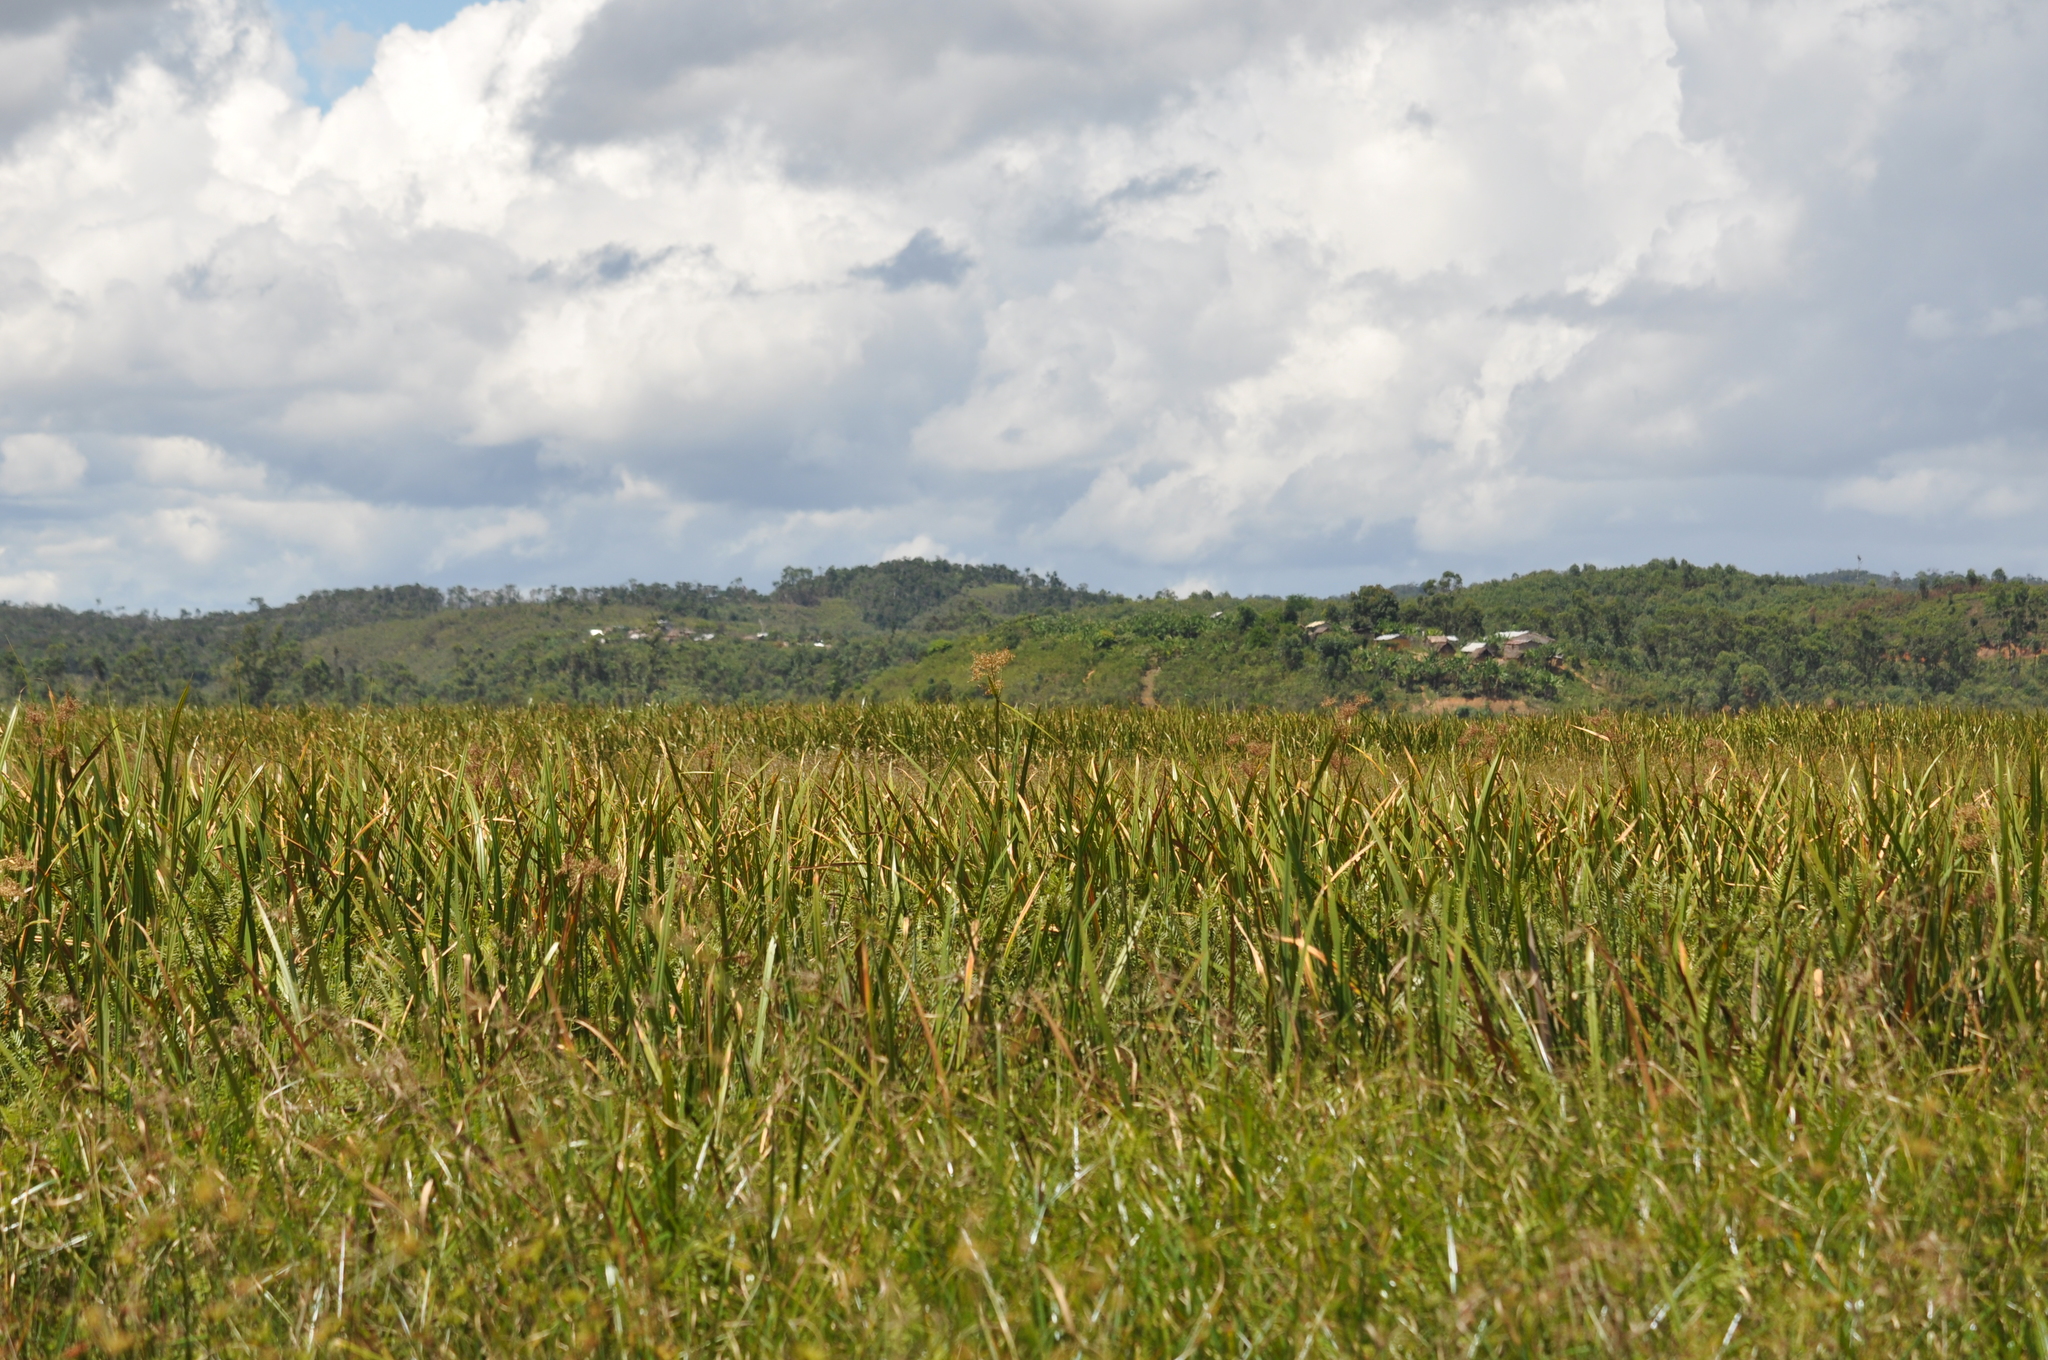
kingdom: Plantae
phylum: Tracheophyta
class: Liliopsida
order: Poales
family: Cyperaceae
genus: Cyperus
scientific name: Cyperus latifolius
